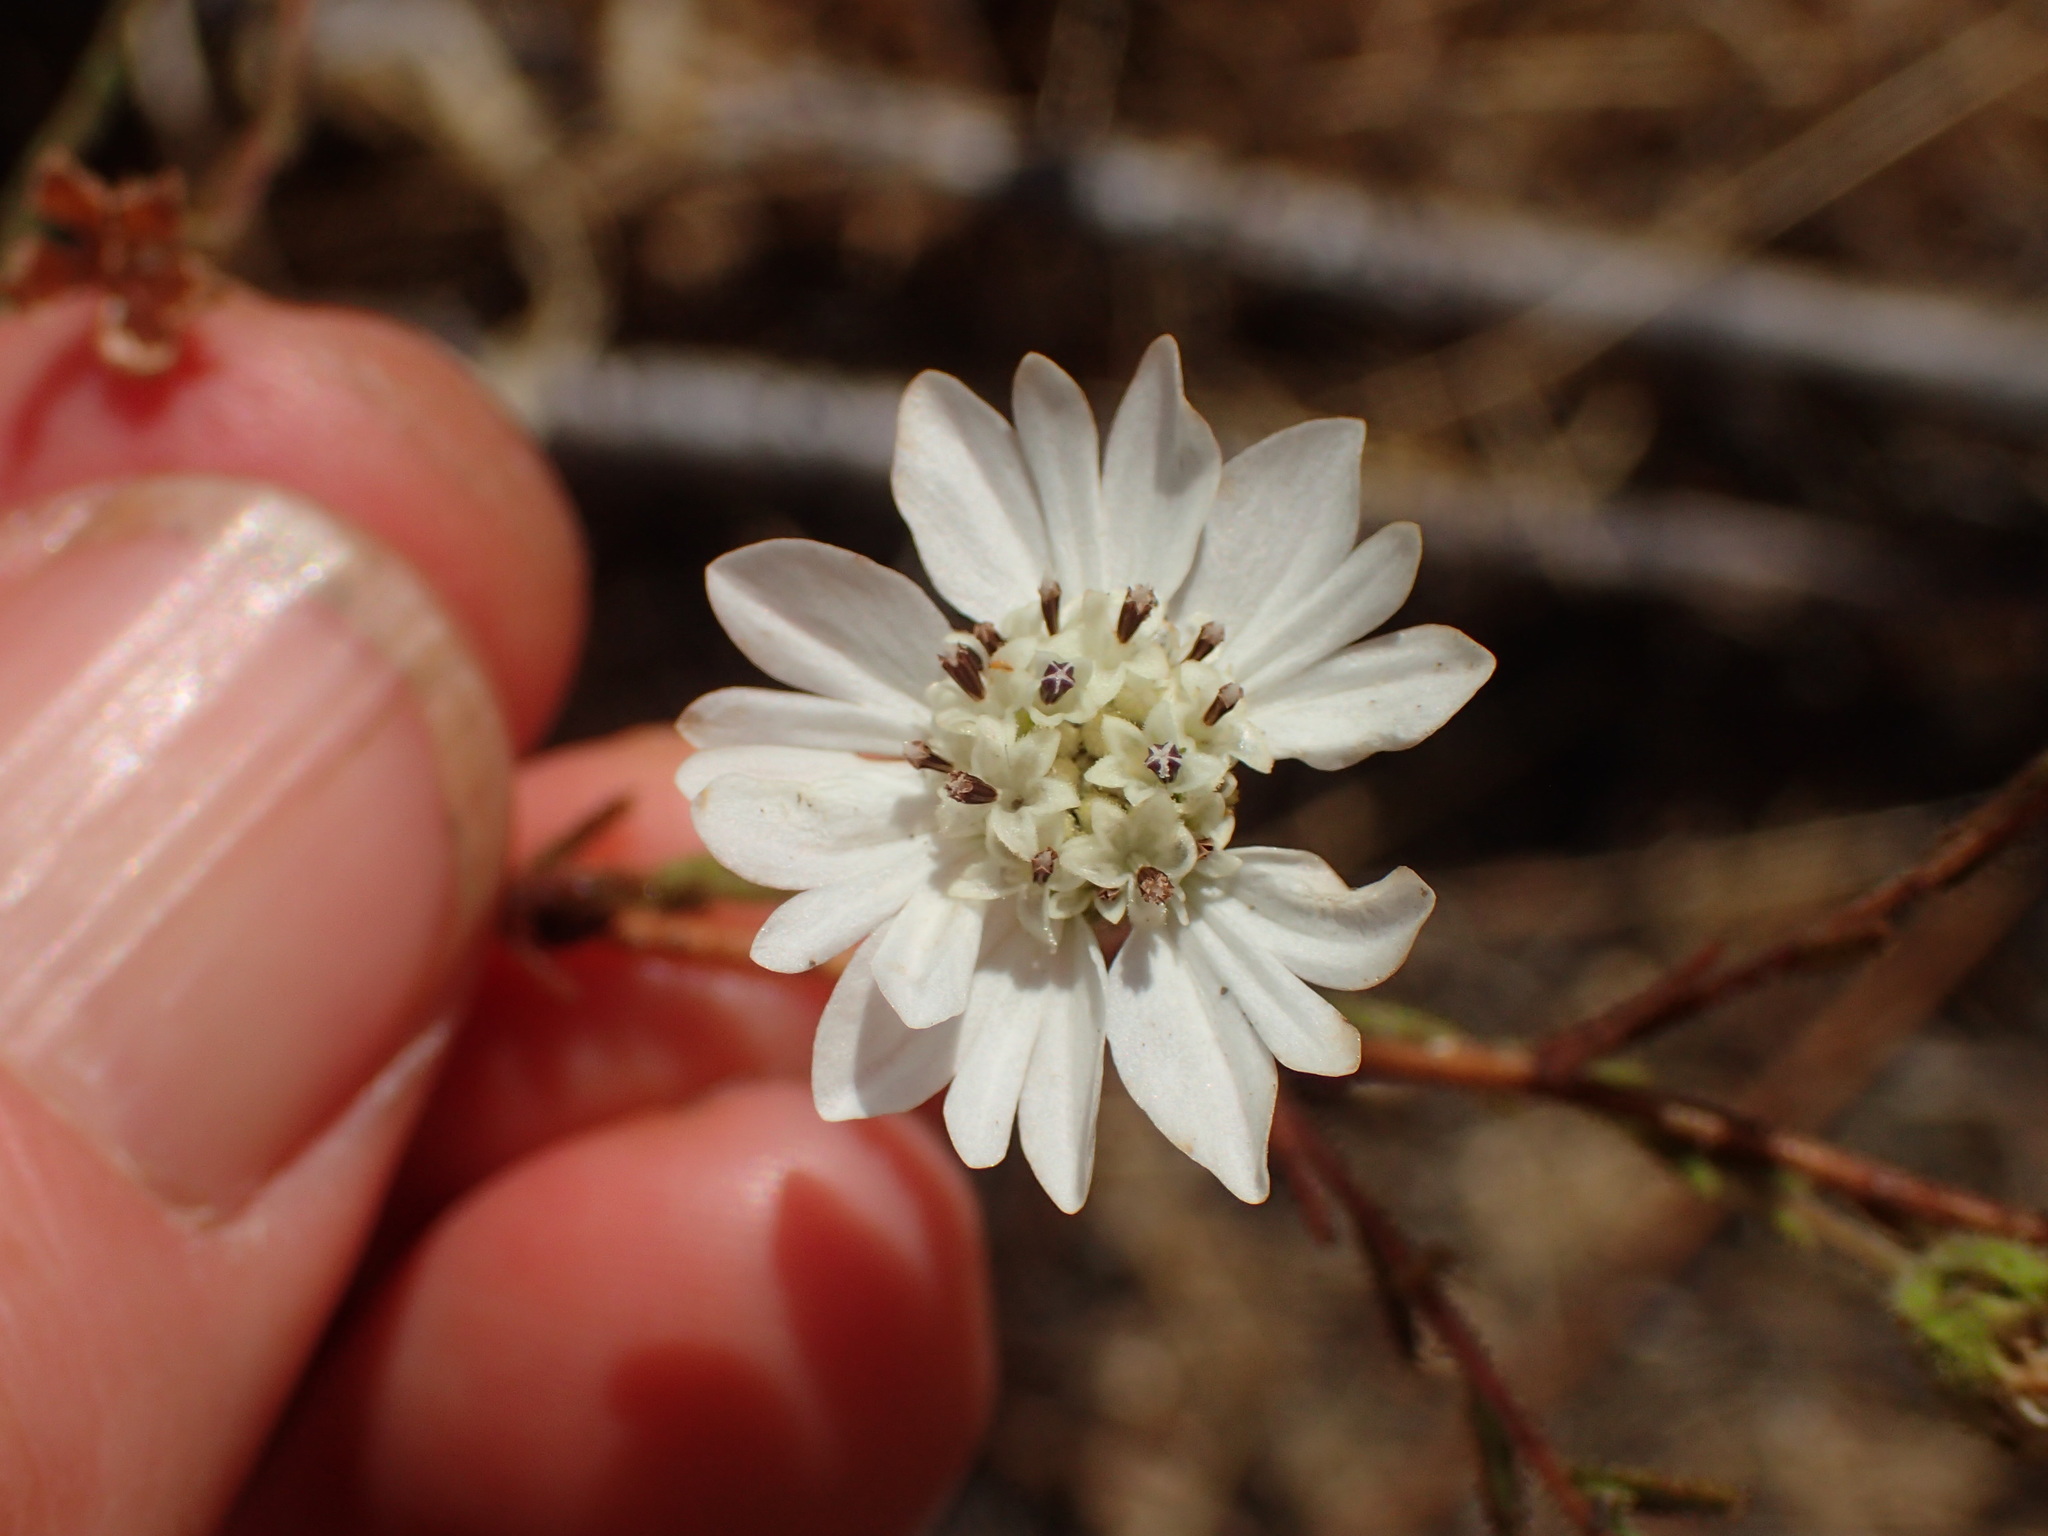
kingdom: Plantae
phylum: Tracheophyta
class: Magnoliopsida
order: Asterales
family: Asteraceae
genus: Hemizonia
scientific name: Hemizonia congesta
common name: Hayfield tarweed
